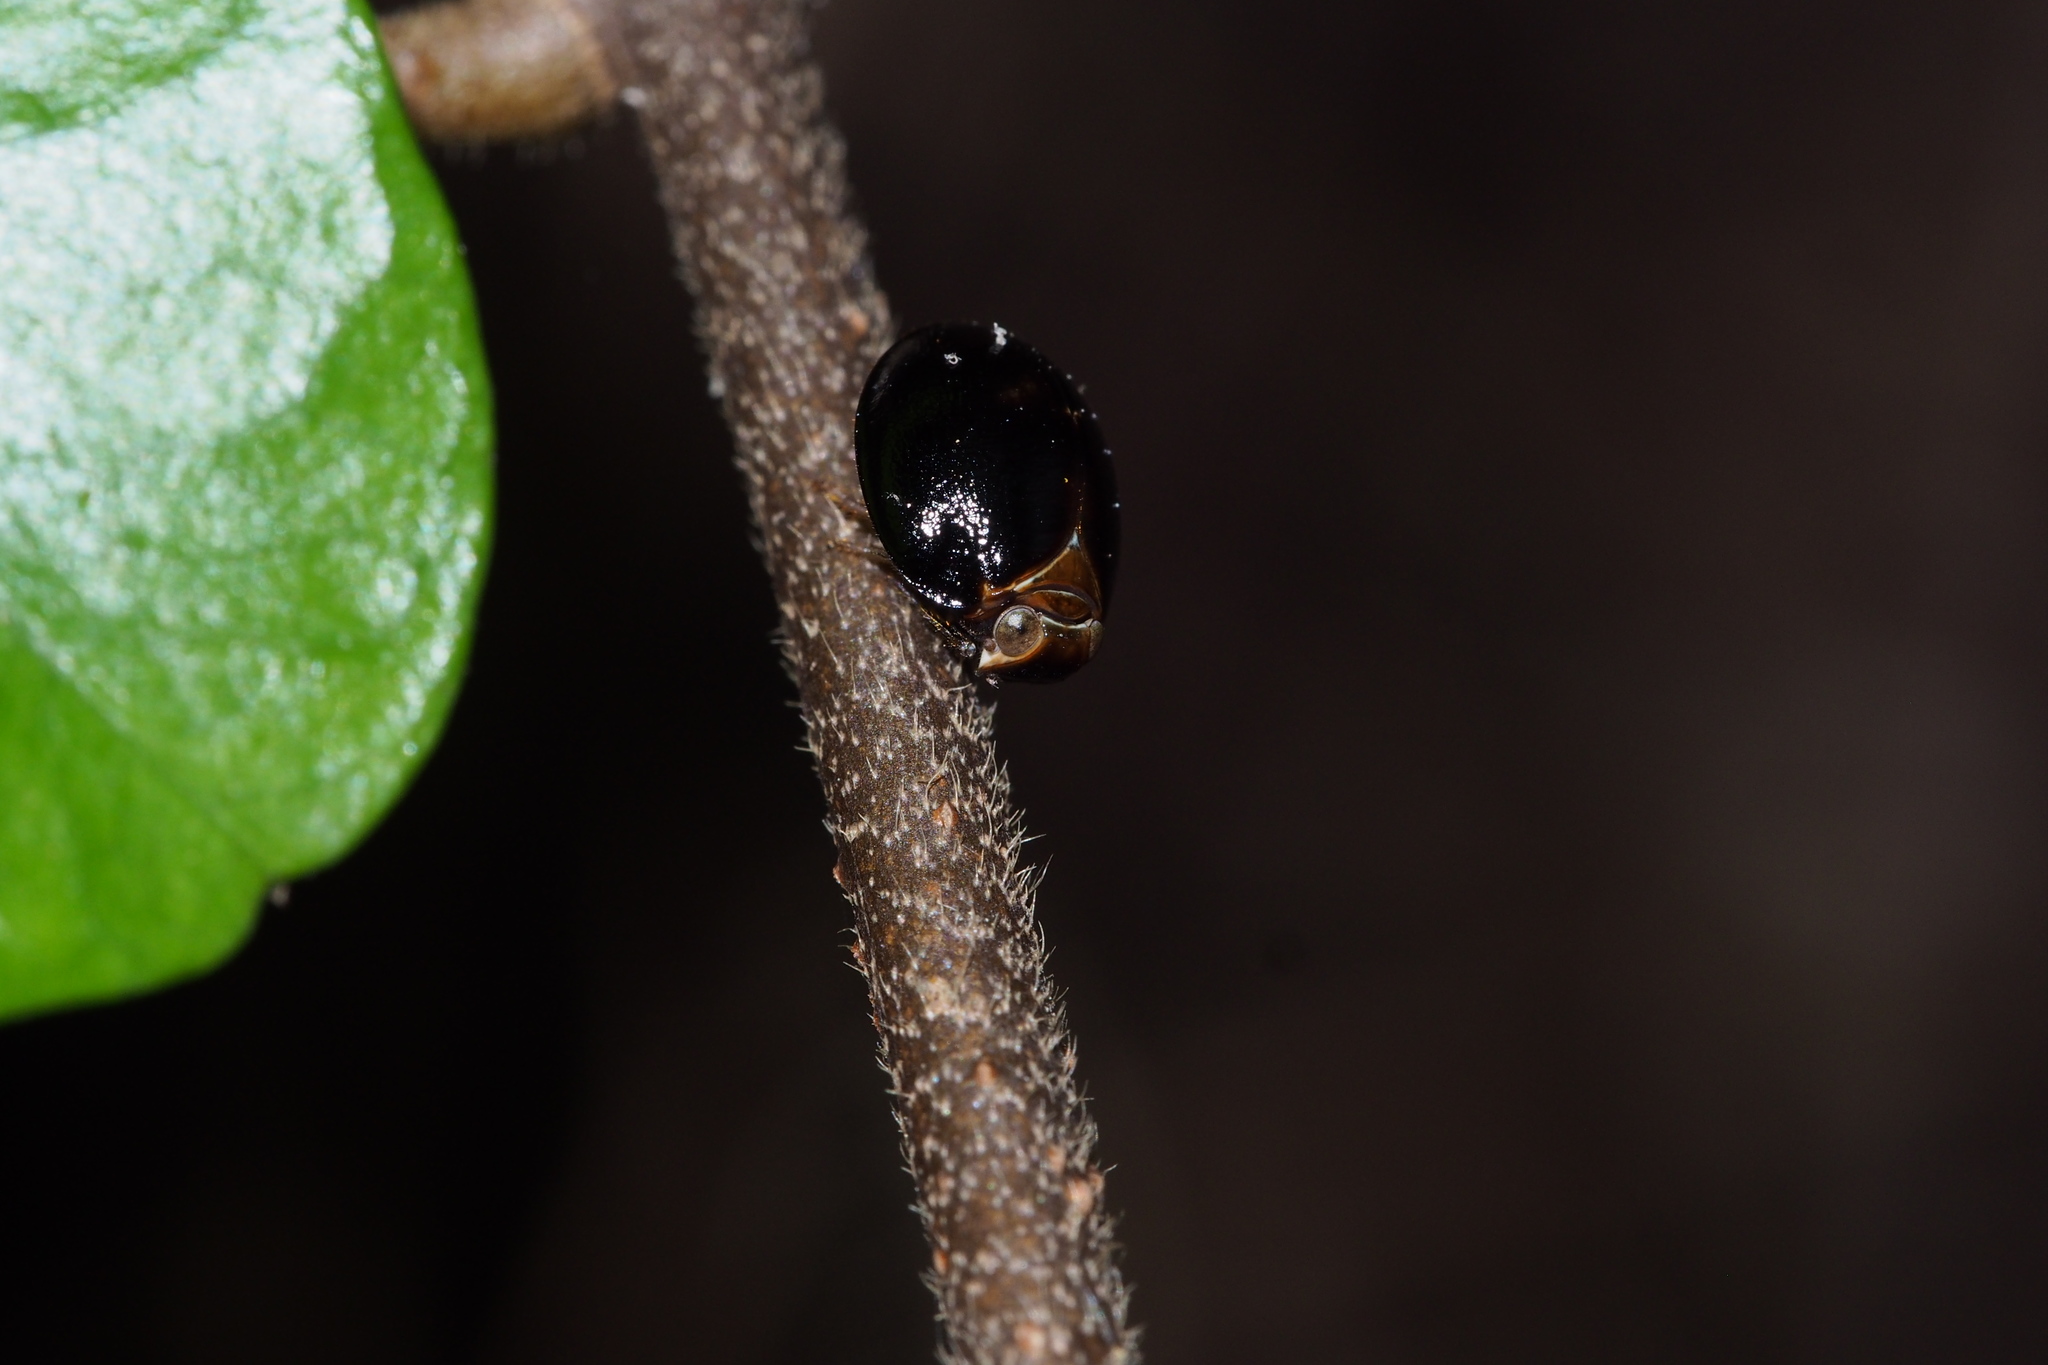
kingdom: Animalia
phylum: Arthropoda
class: Insecta
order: Hemiptera
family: Issidae
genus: Gnezdilovius
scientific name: Gnezdilovius variabilis
